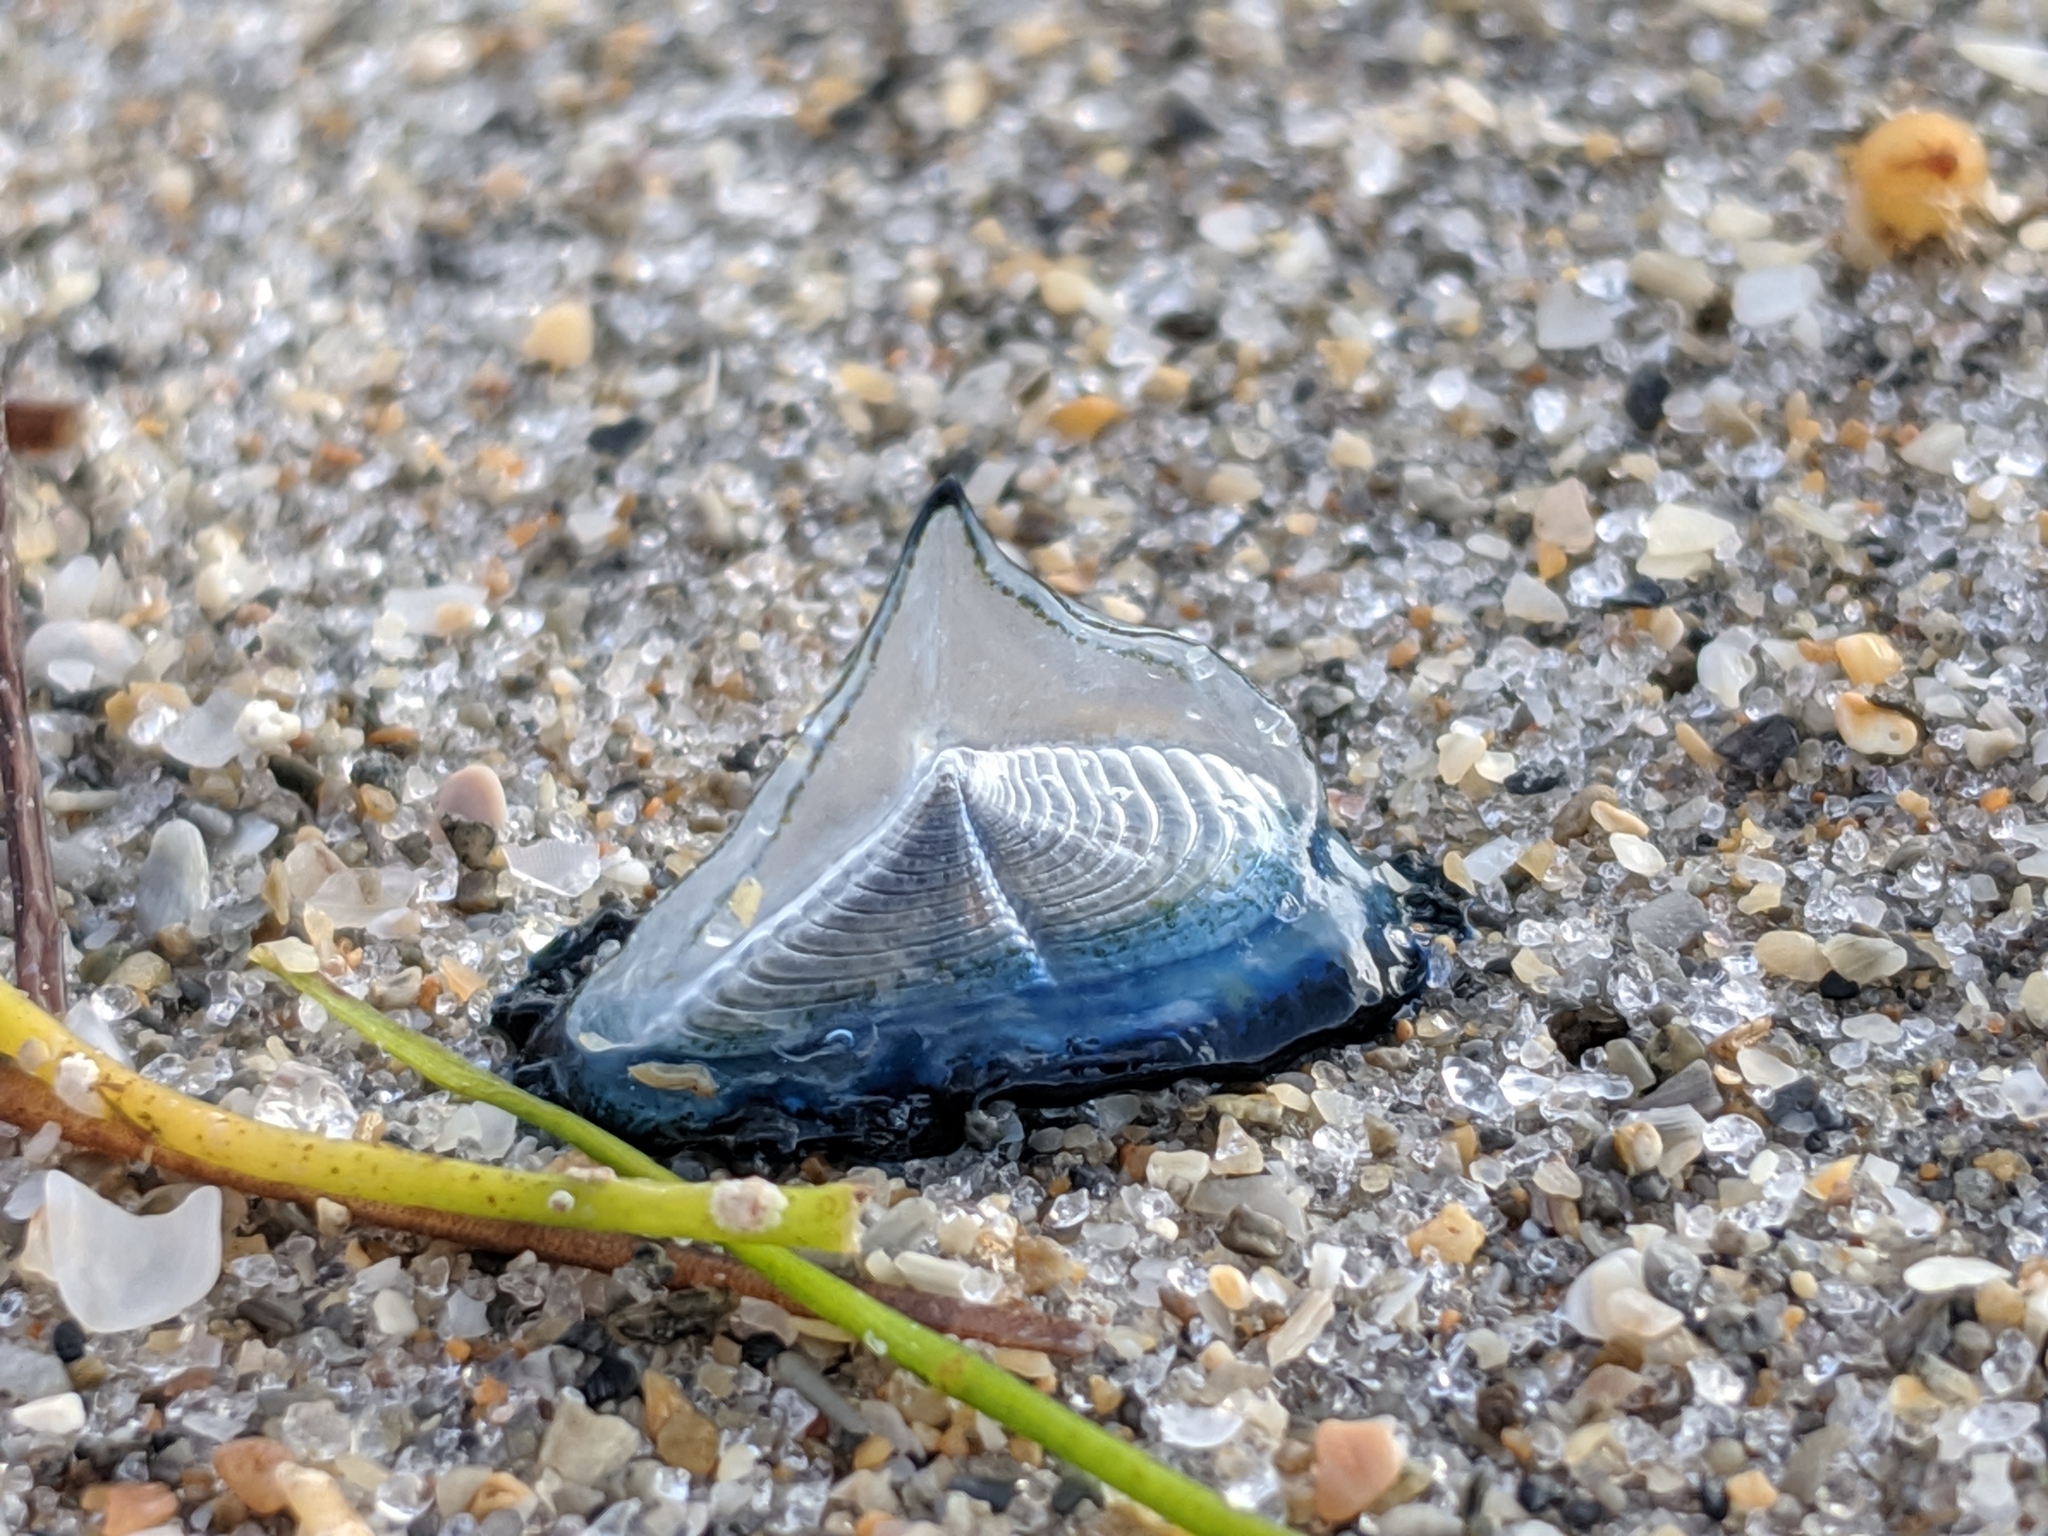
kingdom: Animalia
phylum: Cnidaria
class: Hydrozoa
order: Anthoathecata
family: Porpitidae
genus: Velella
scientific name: Velella velella
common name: By-the-wind-sailor
